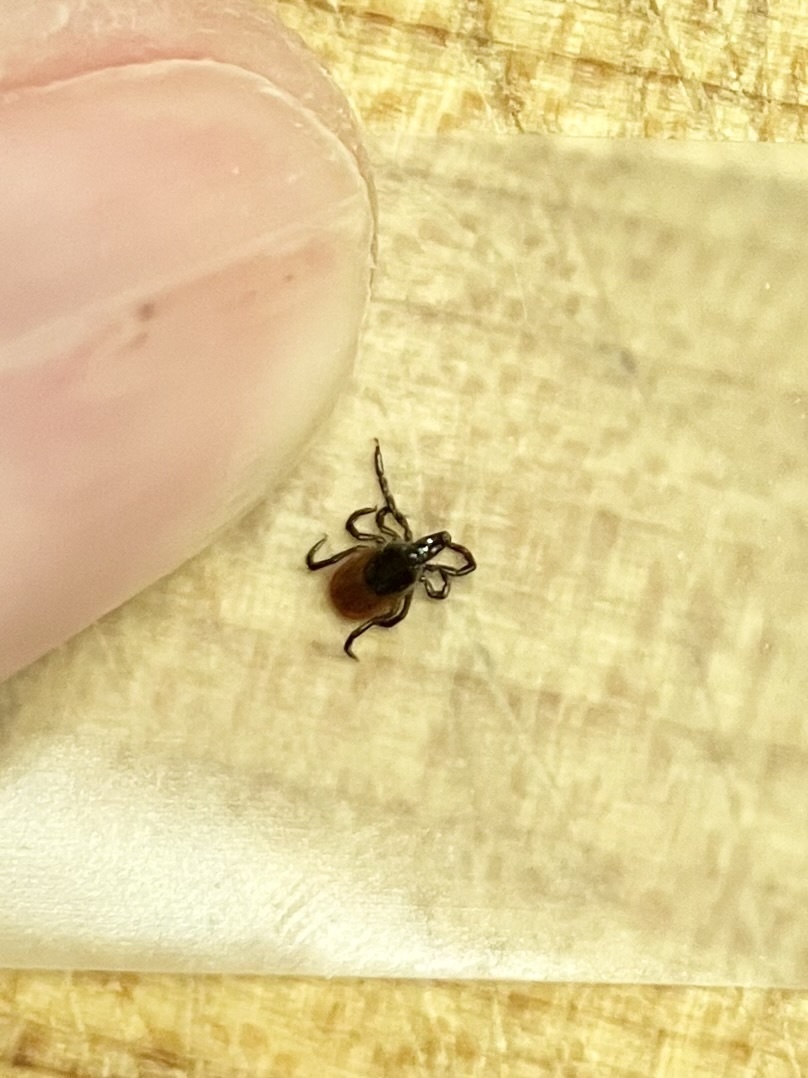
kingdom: Animalia
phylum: Arthropoda
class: Arachnida
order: Ixodida
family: Ixodidae
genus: Ixodes
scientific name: Ixodes scapularis
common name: Black legged tick
